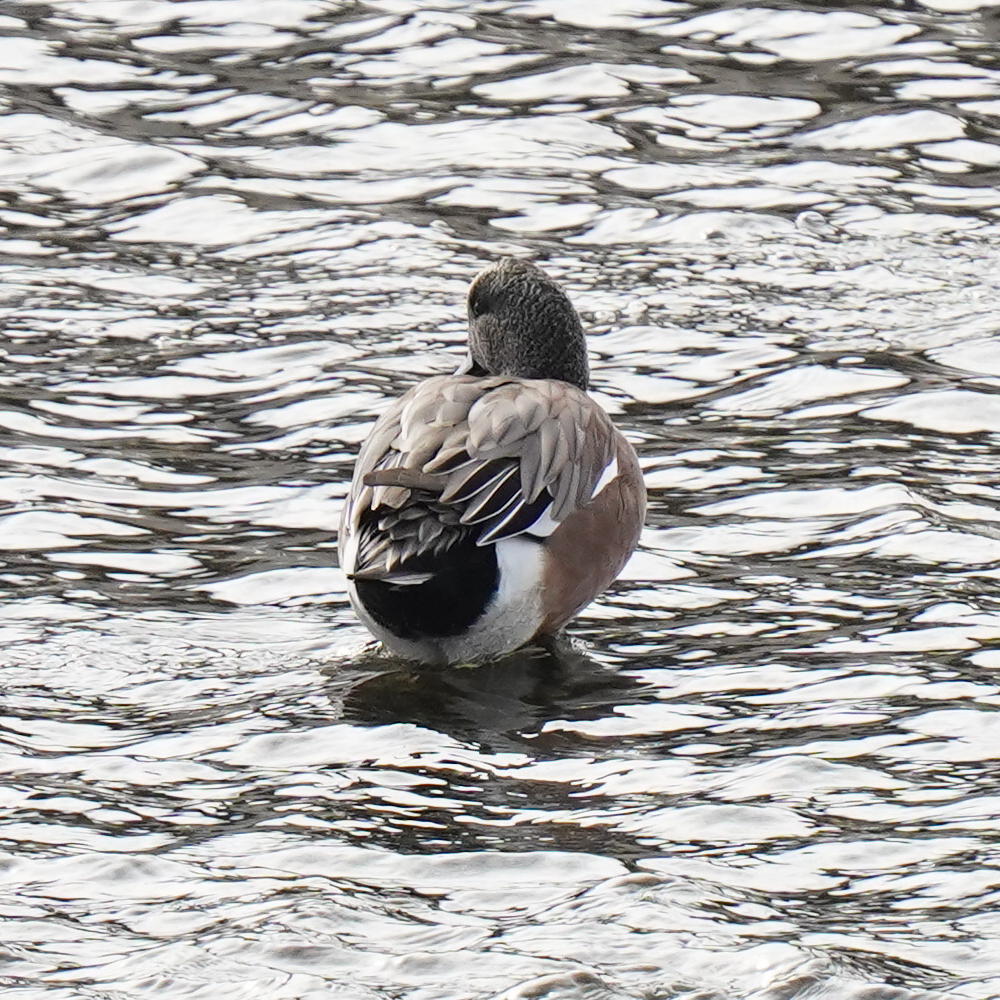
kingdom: Animalia
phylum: Chordata
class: Aves
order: Anseriformes
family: Anatidae
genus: Mareca
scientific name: Mareca americana
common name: American wigeon
